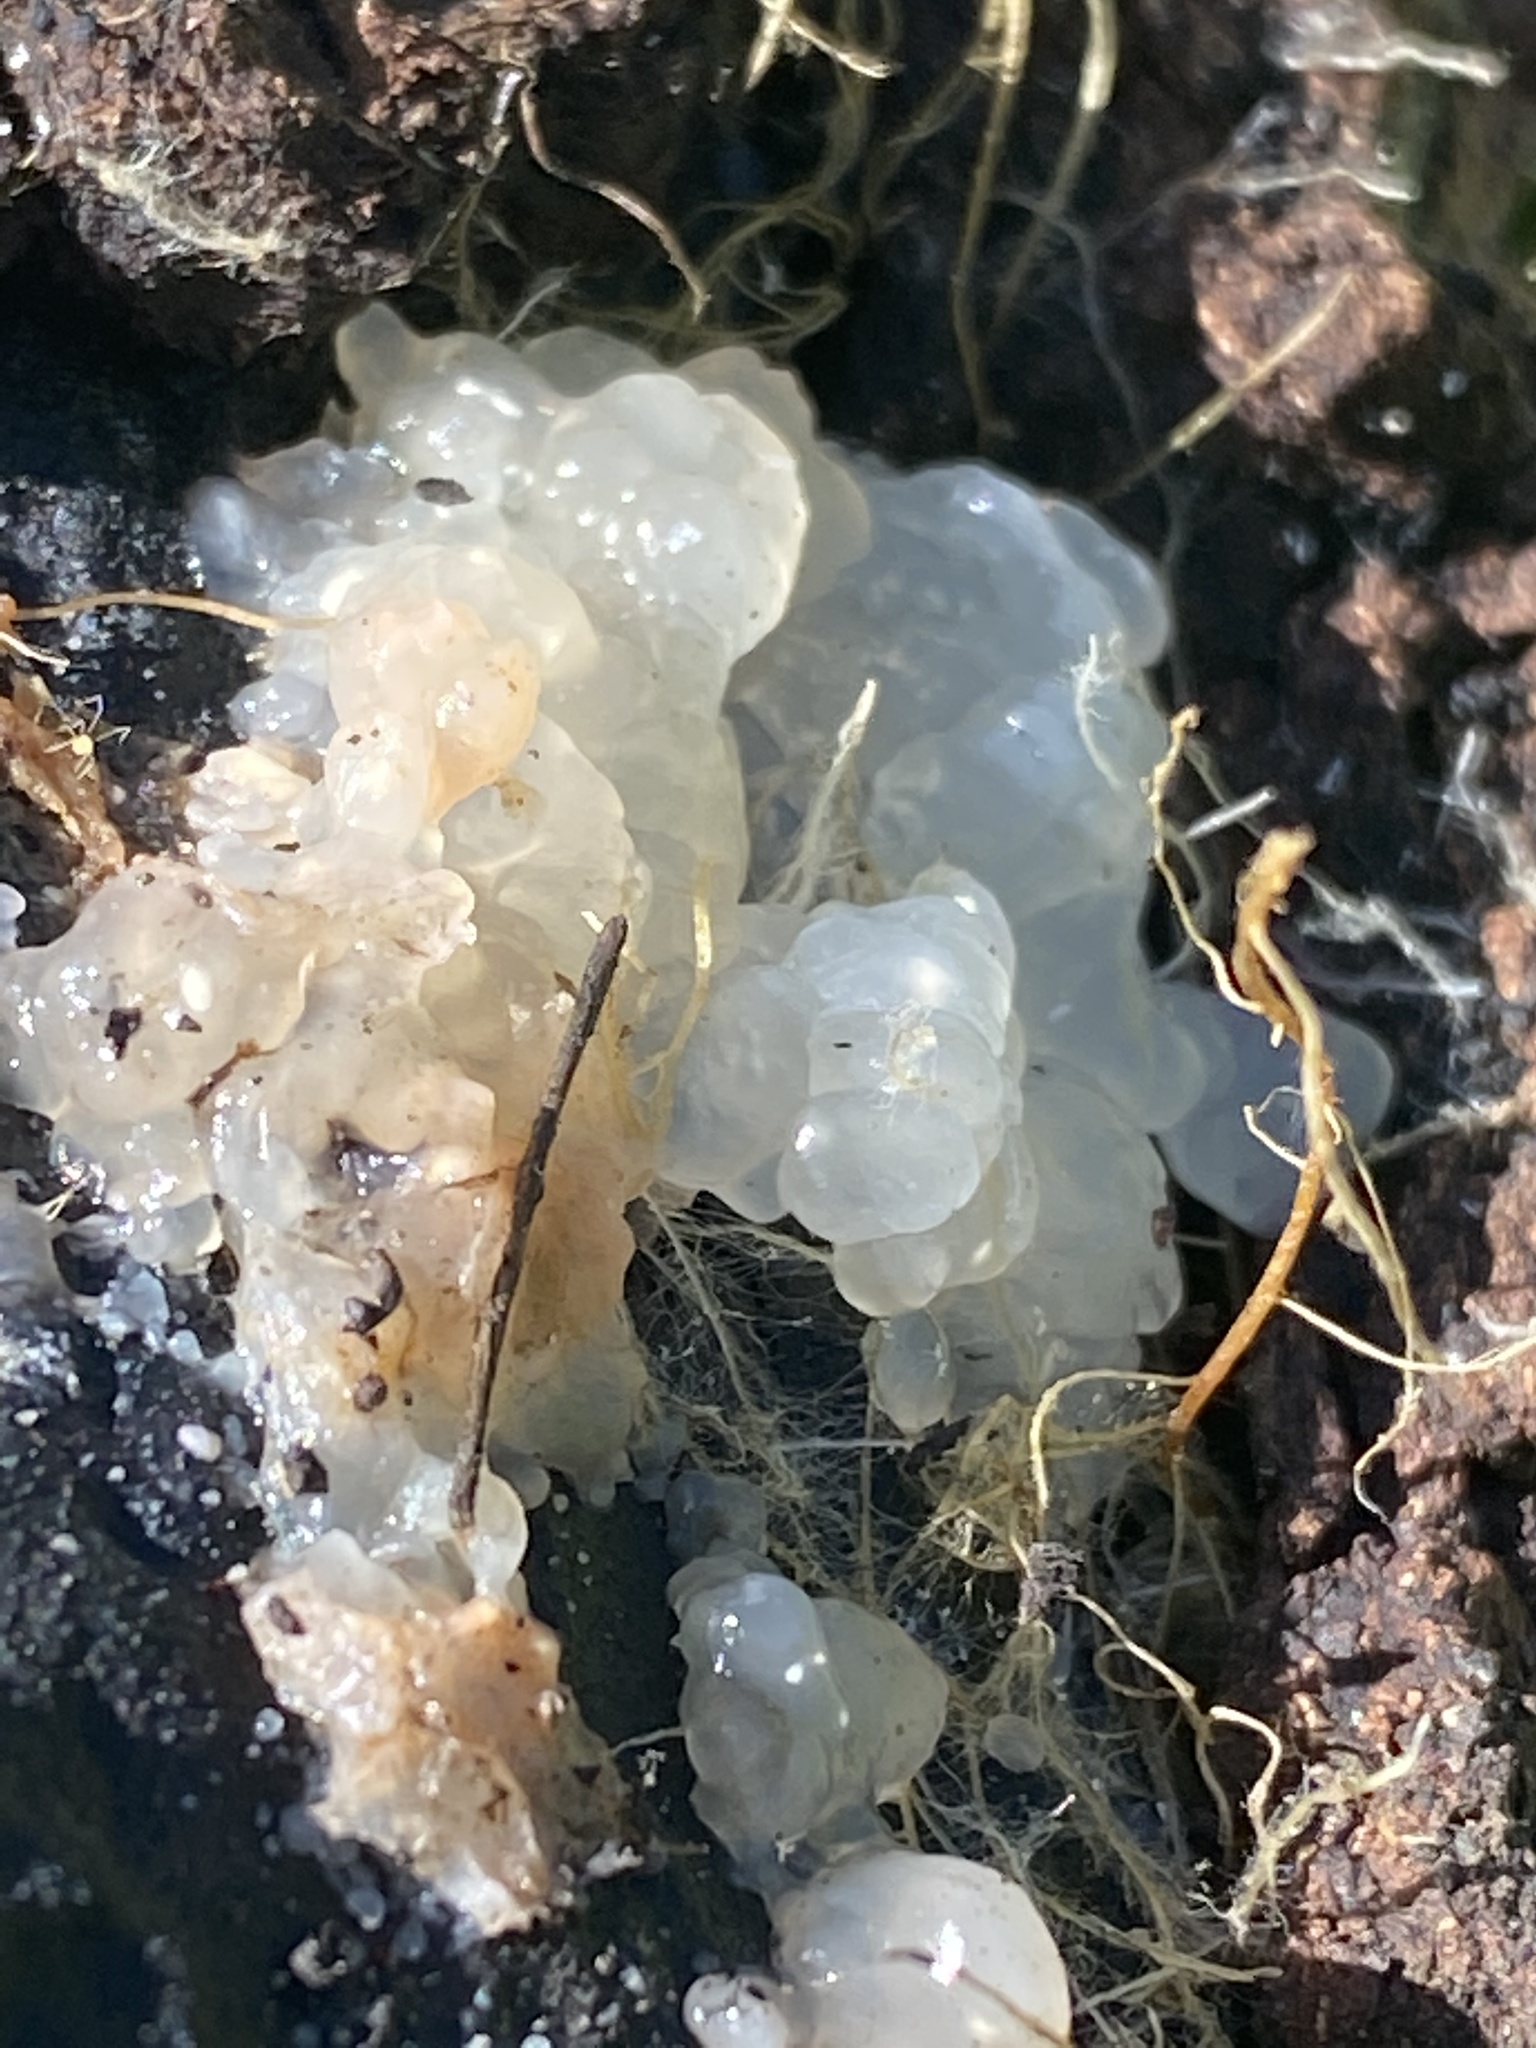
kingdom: Fungi
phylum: Basidiomycota
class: Agaricomycetes
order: Auriculariales
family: Hyaloriaceae
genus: Myxarium
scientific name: Myxarium nucleatum
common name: Crystal brain fungus
